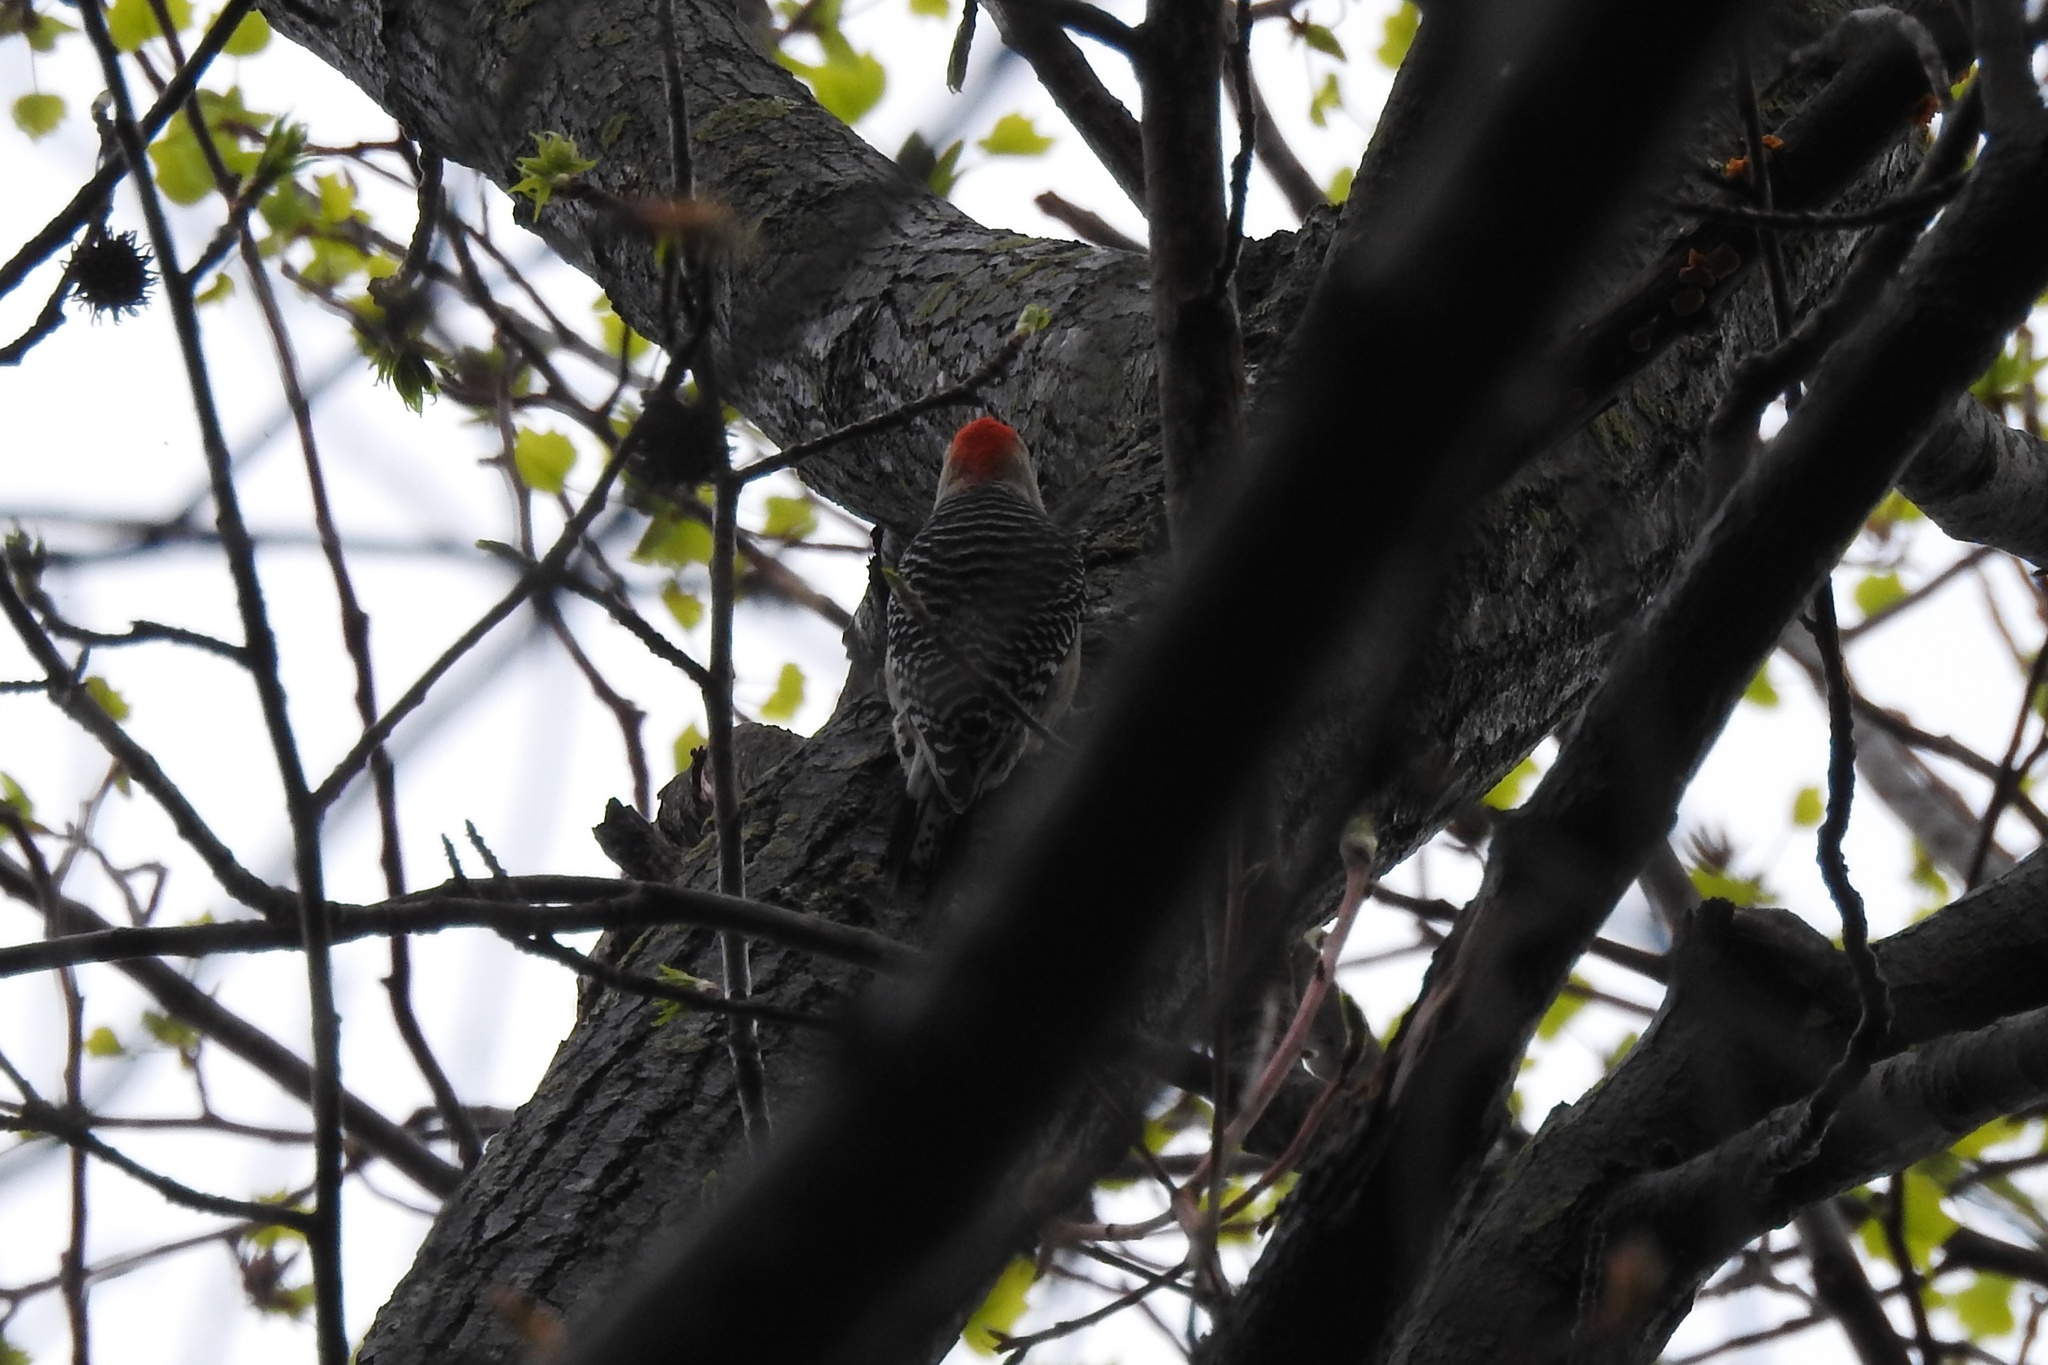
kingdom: Animalia
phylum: Chordata
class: Aves
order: Piciformes
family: Picidae
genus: Melanerpes
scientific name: Melanerpes carolinus
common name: Red-bellied woodpecker
